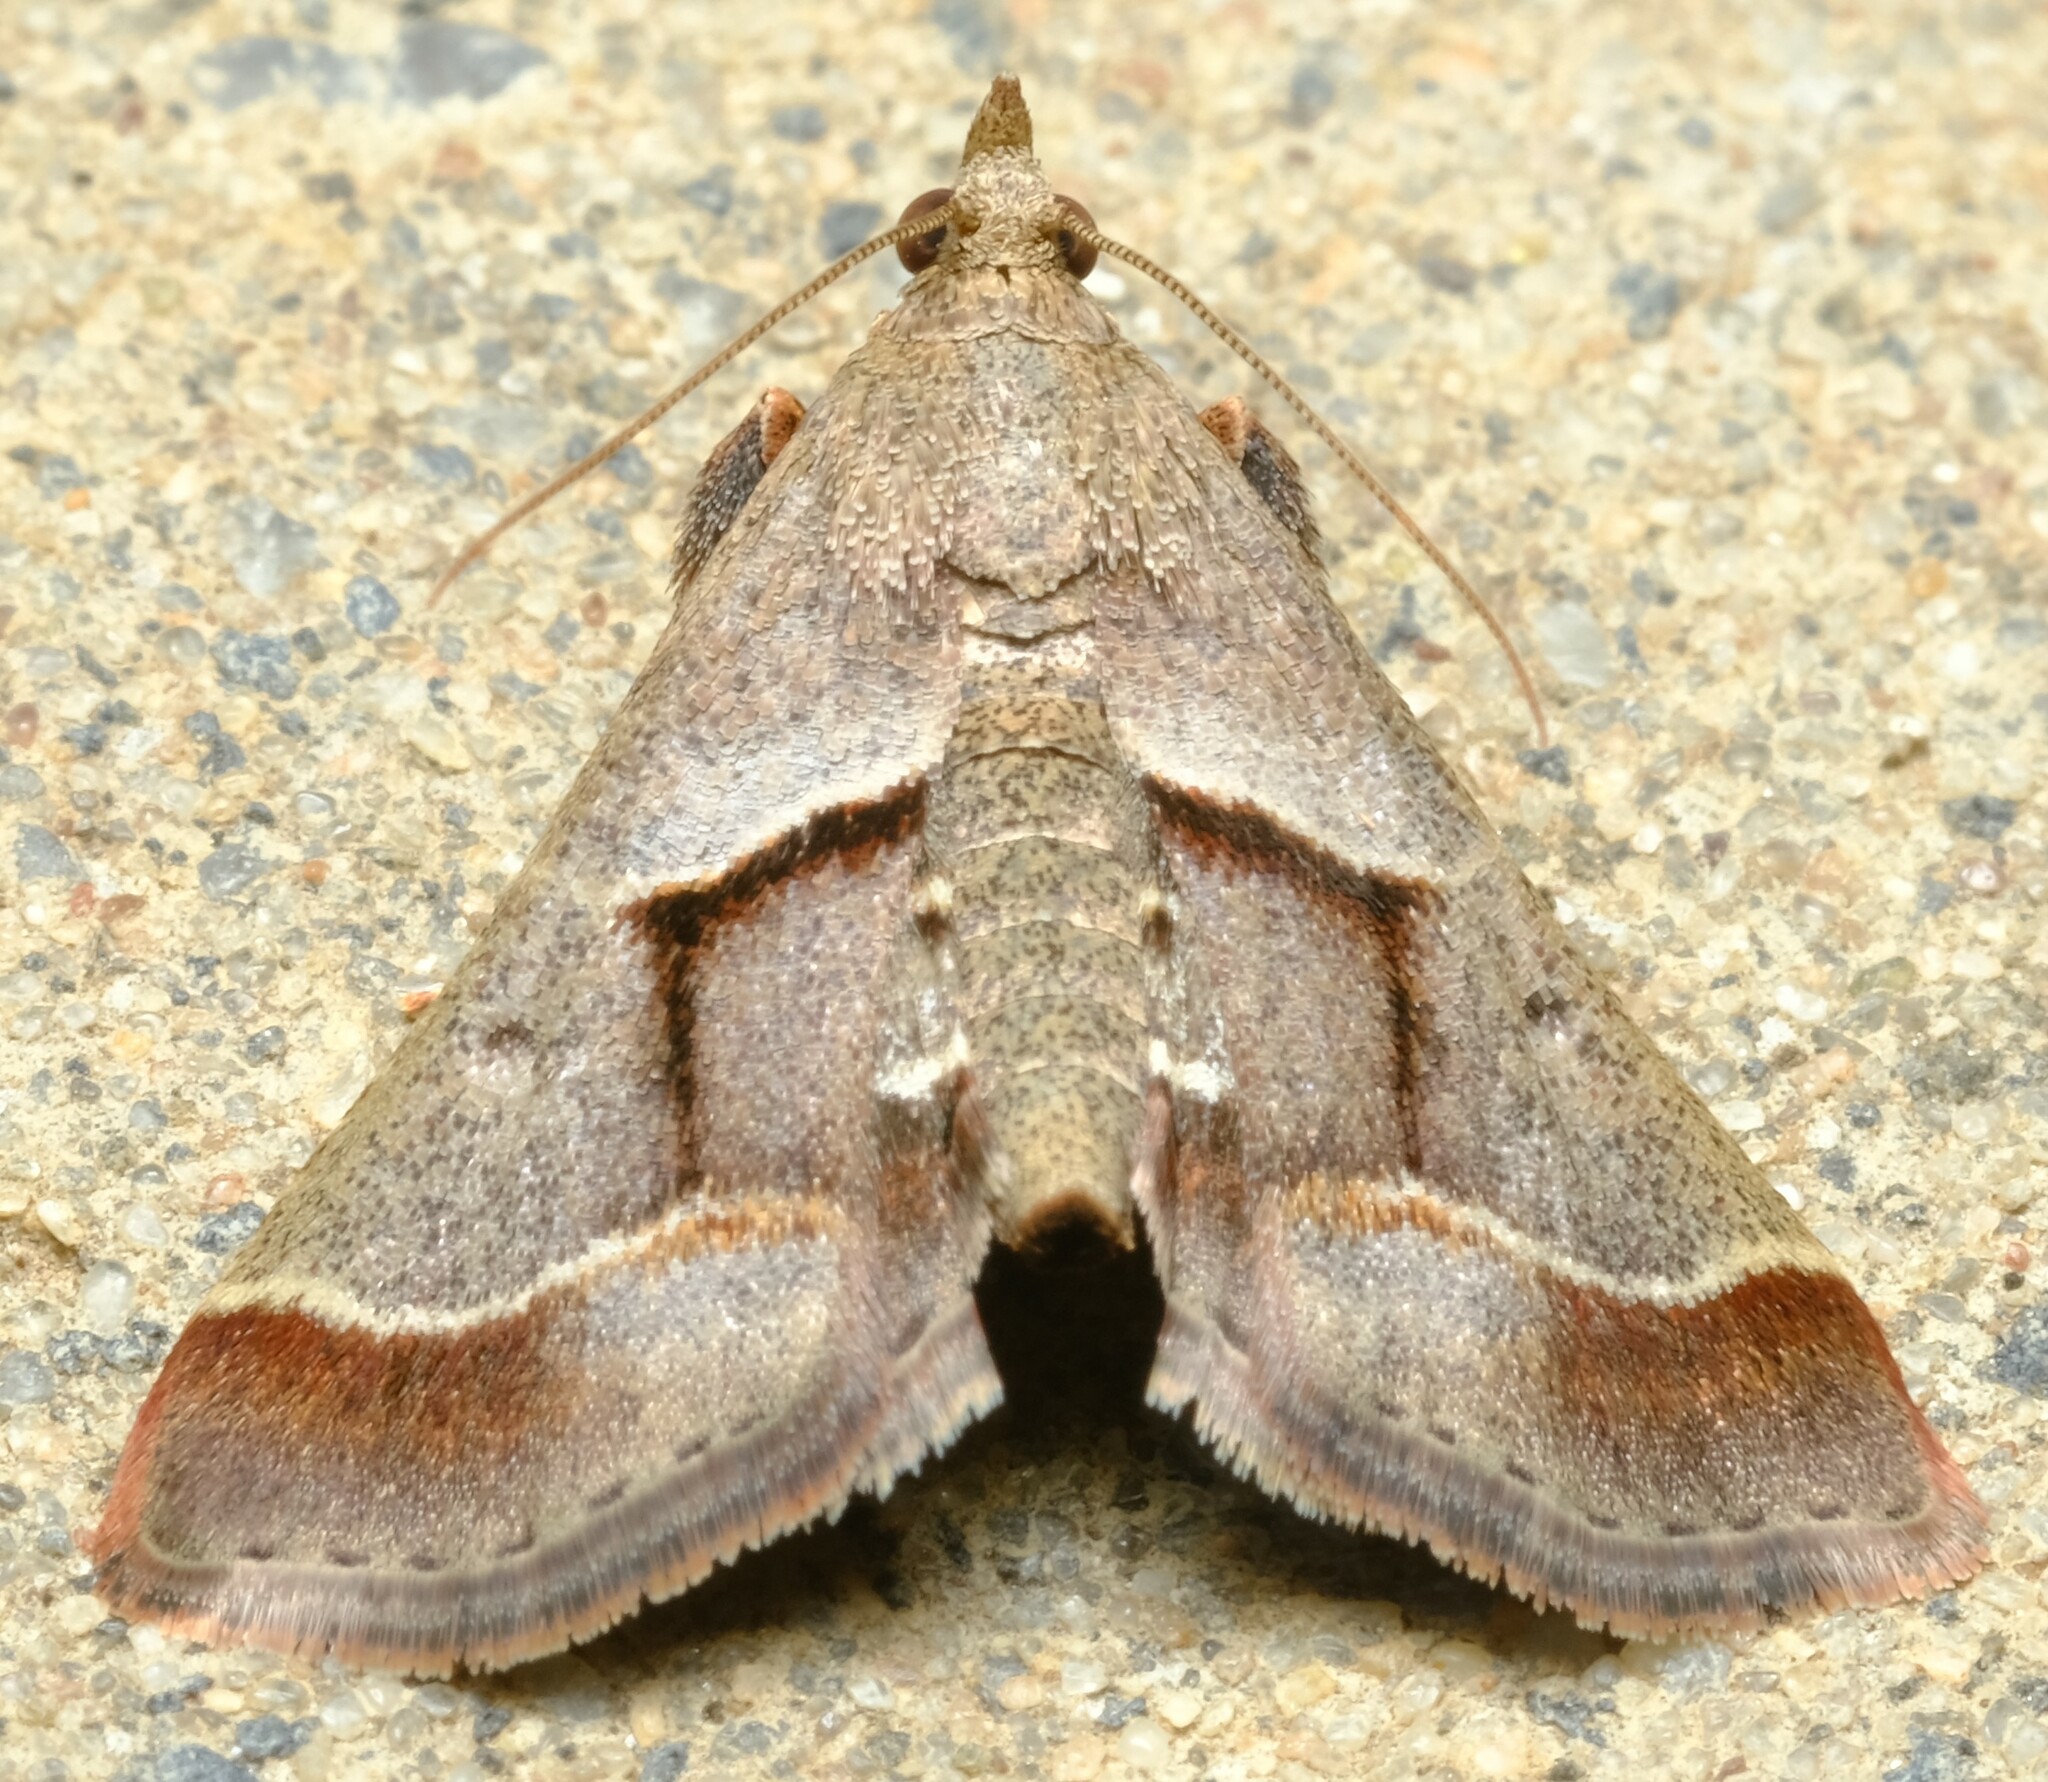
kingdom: Animalia
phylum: Arthropoda
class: Insecta
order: Lepidoptera
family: Pyralidae
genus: Gauna
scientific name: Gauna aegusalis
